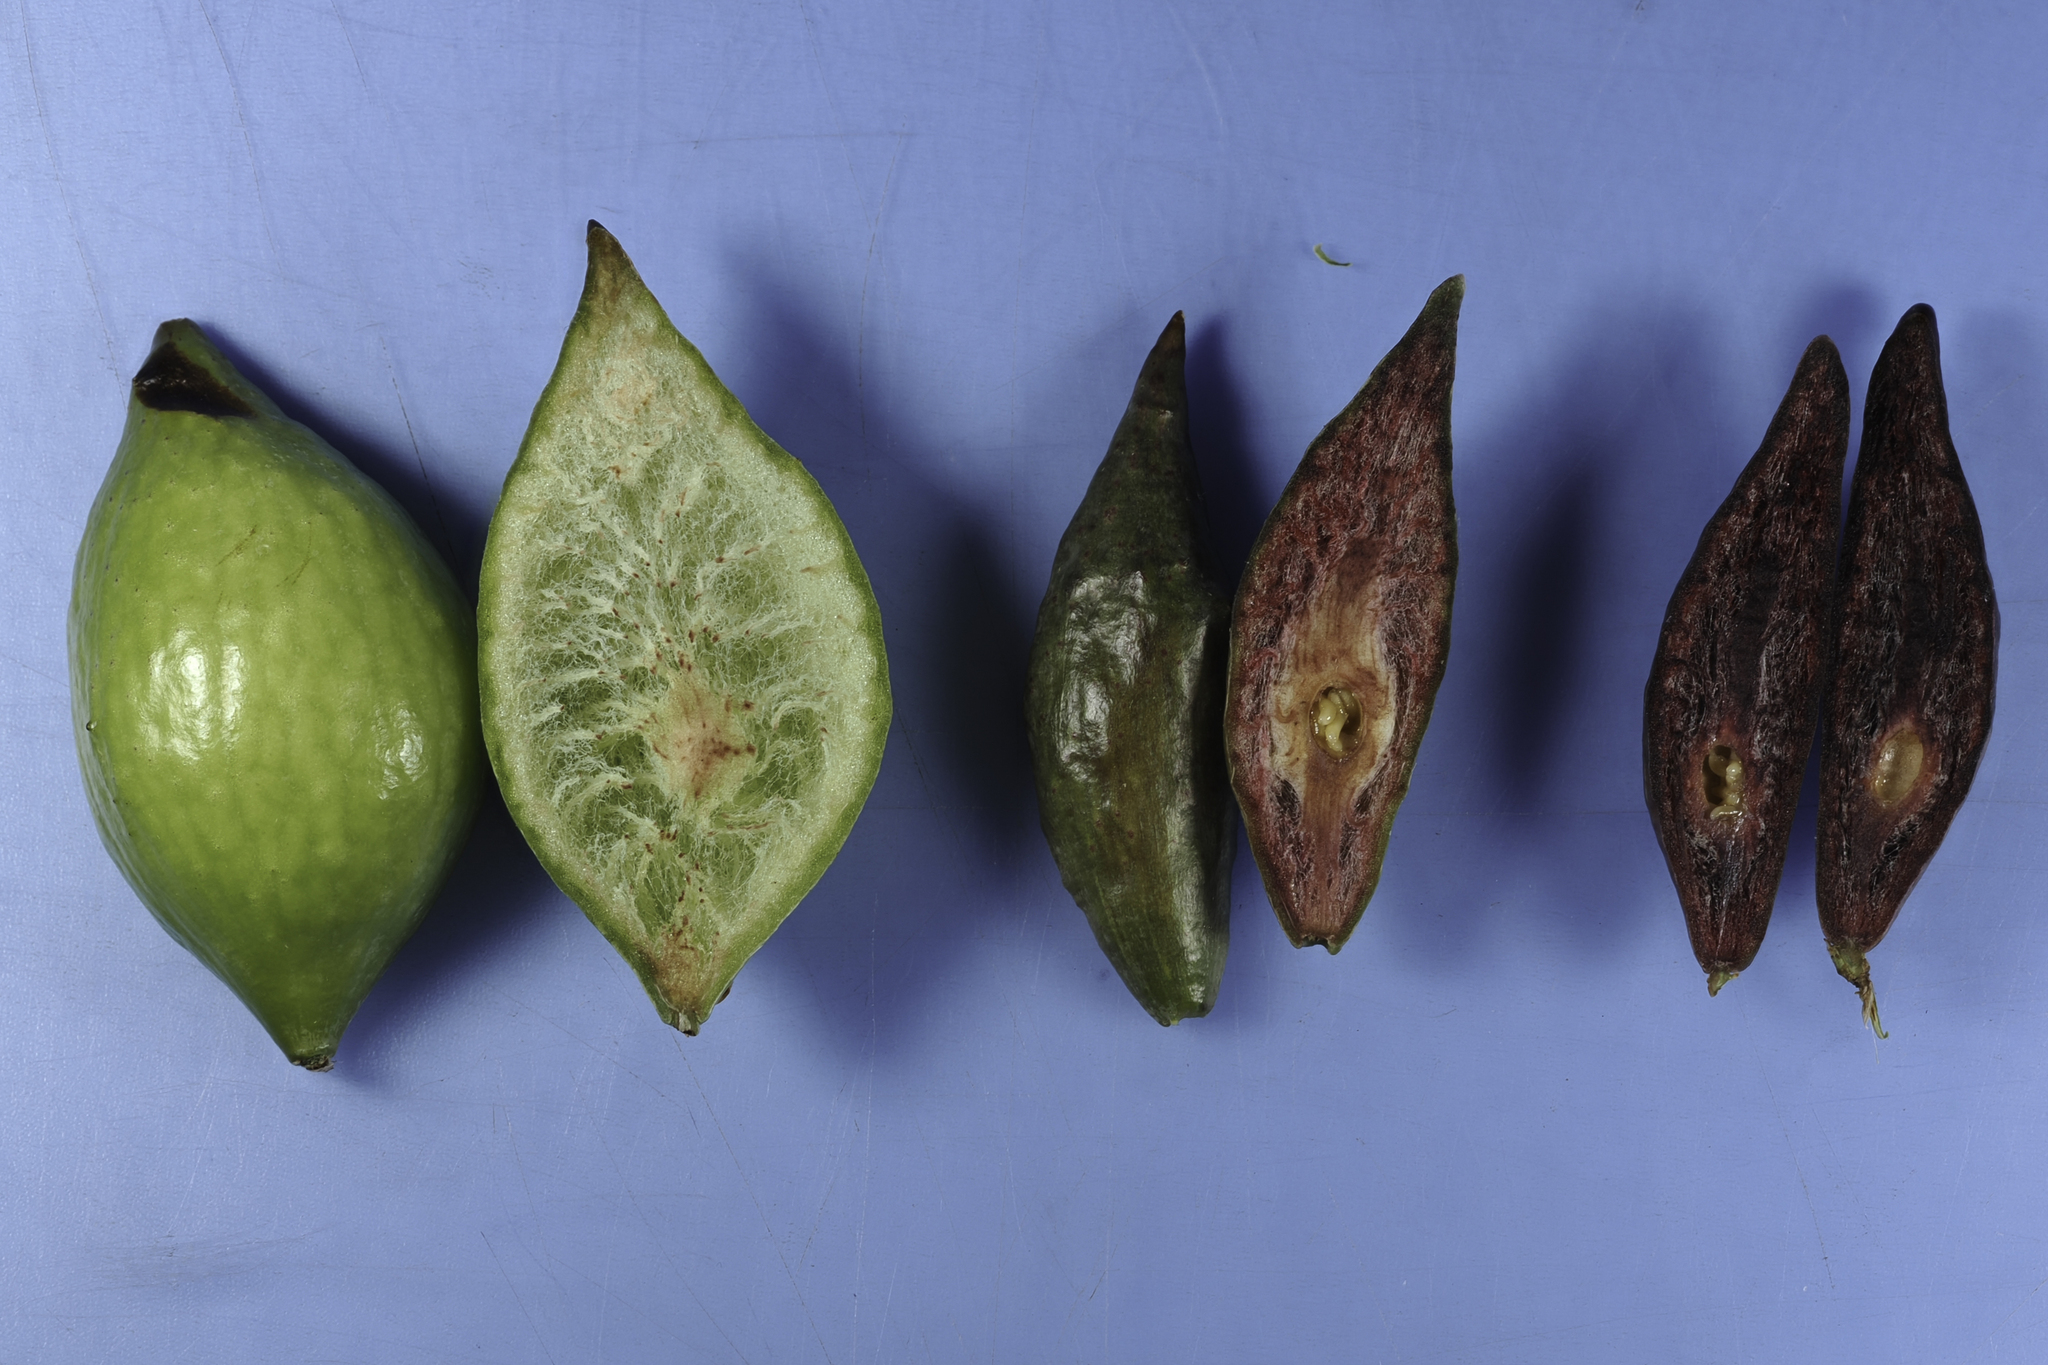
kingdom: Animalia
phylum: Arthropoda
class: Insecta
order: Hymenoptera
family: Cynipidae
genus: Amphibolips
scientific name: Amphibolips
